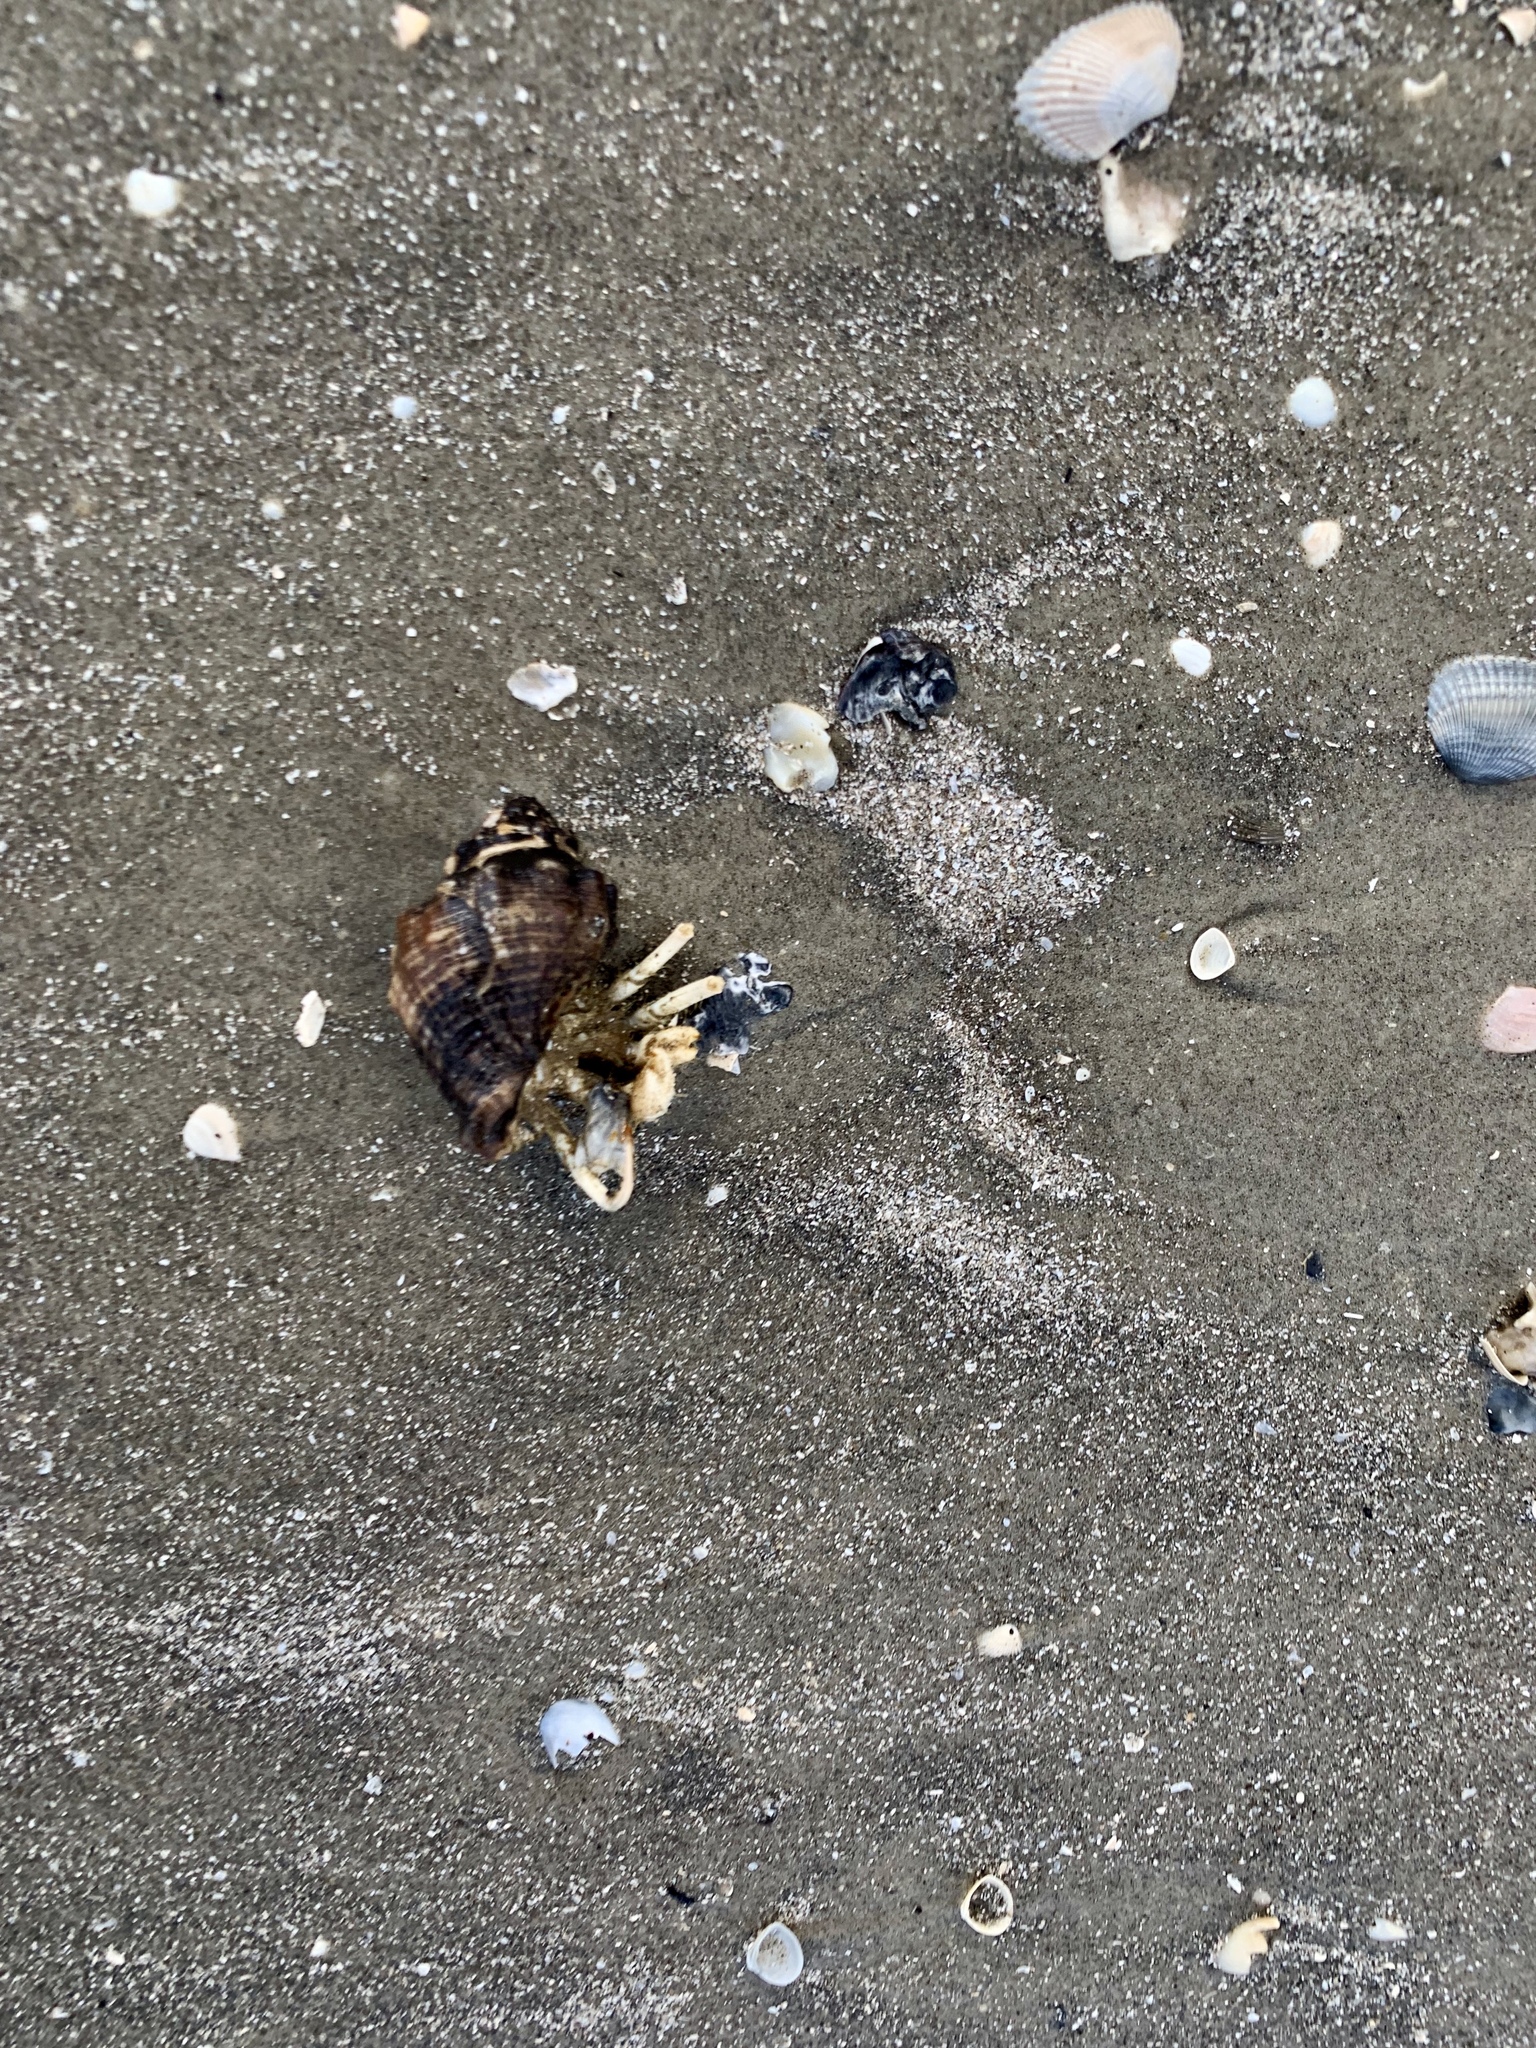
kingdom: Animalia
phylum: Arthropoda
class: Malacostraca
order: Decapoda
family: Diogenidae
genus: Isocheles
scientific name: Isocheles wurdemanni
